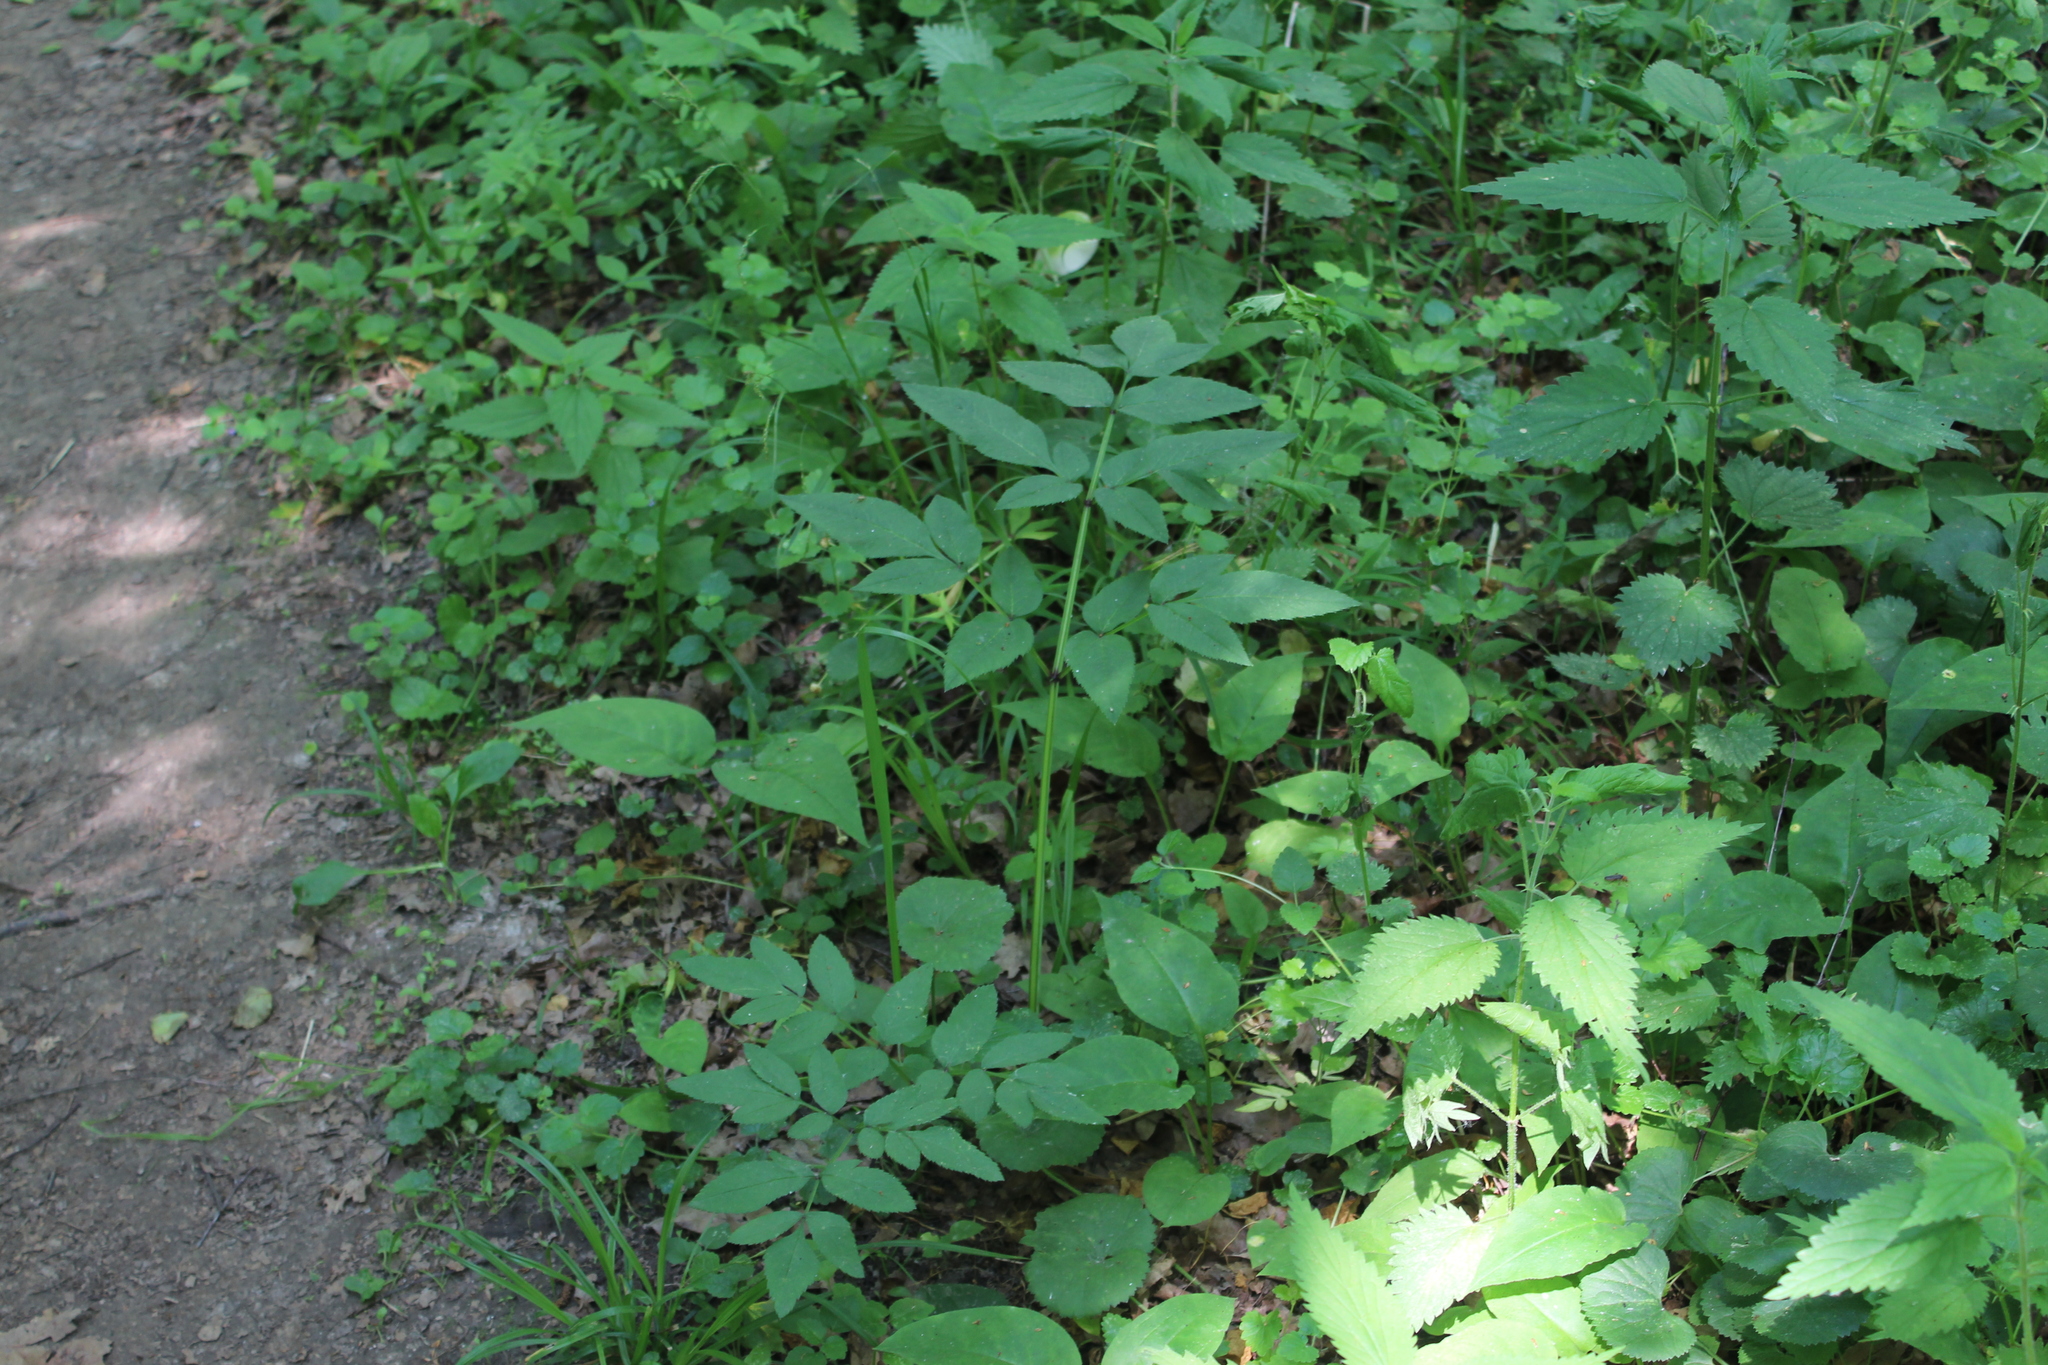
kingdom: Plantae
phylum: Tracheophyta
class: Magnoliopsida
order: Apiales
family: Apiaceae
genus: Angelica
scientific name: Angelica sylvestris
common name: Wild angelica
